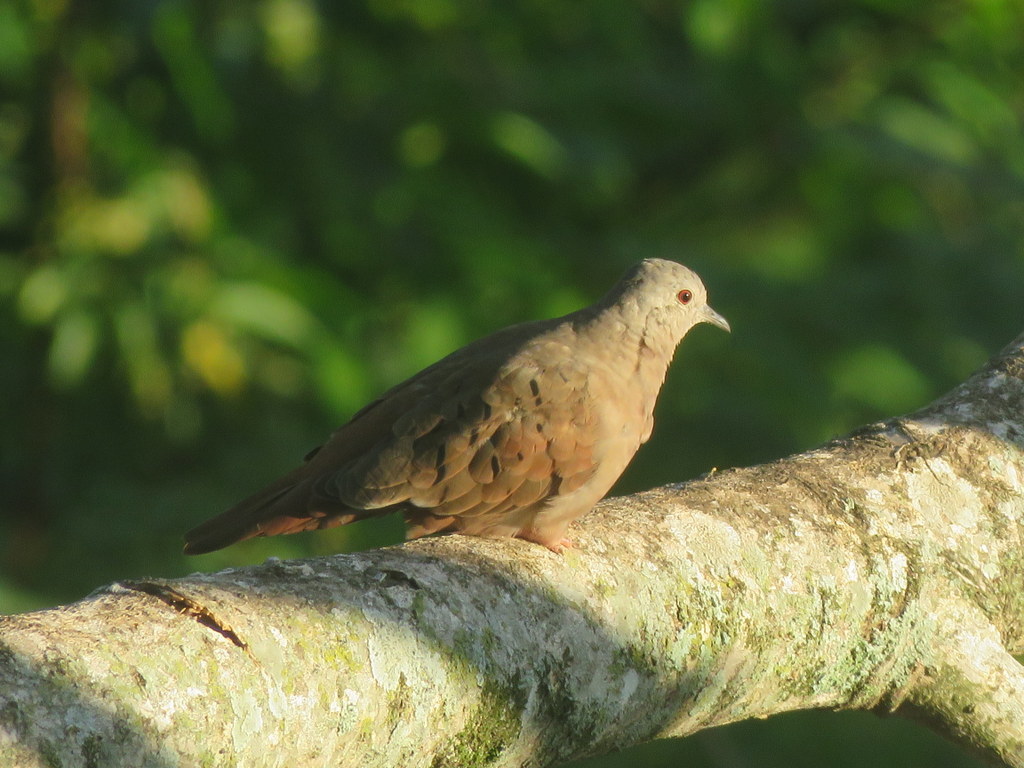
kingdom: Animalia
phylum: Chordata
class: Aves
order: Columbiformes
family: Columbidae
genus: Columbina
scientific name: Columbina talpacoti
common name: Ruddy ground dove
